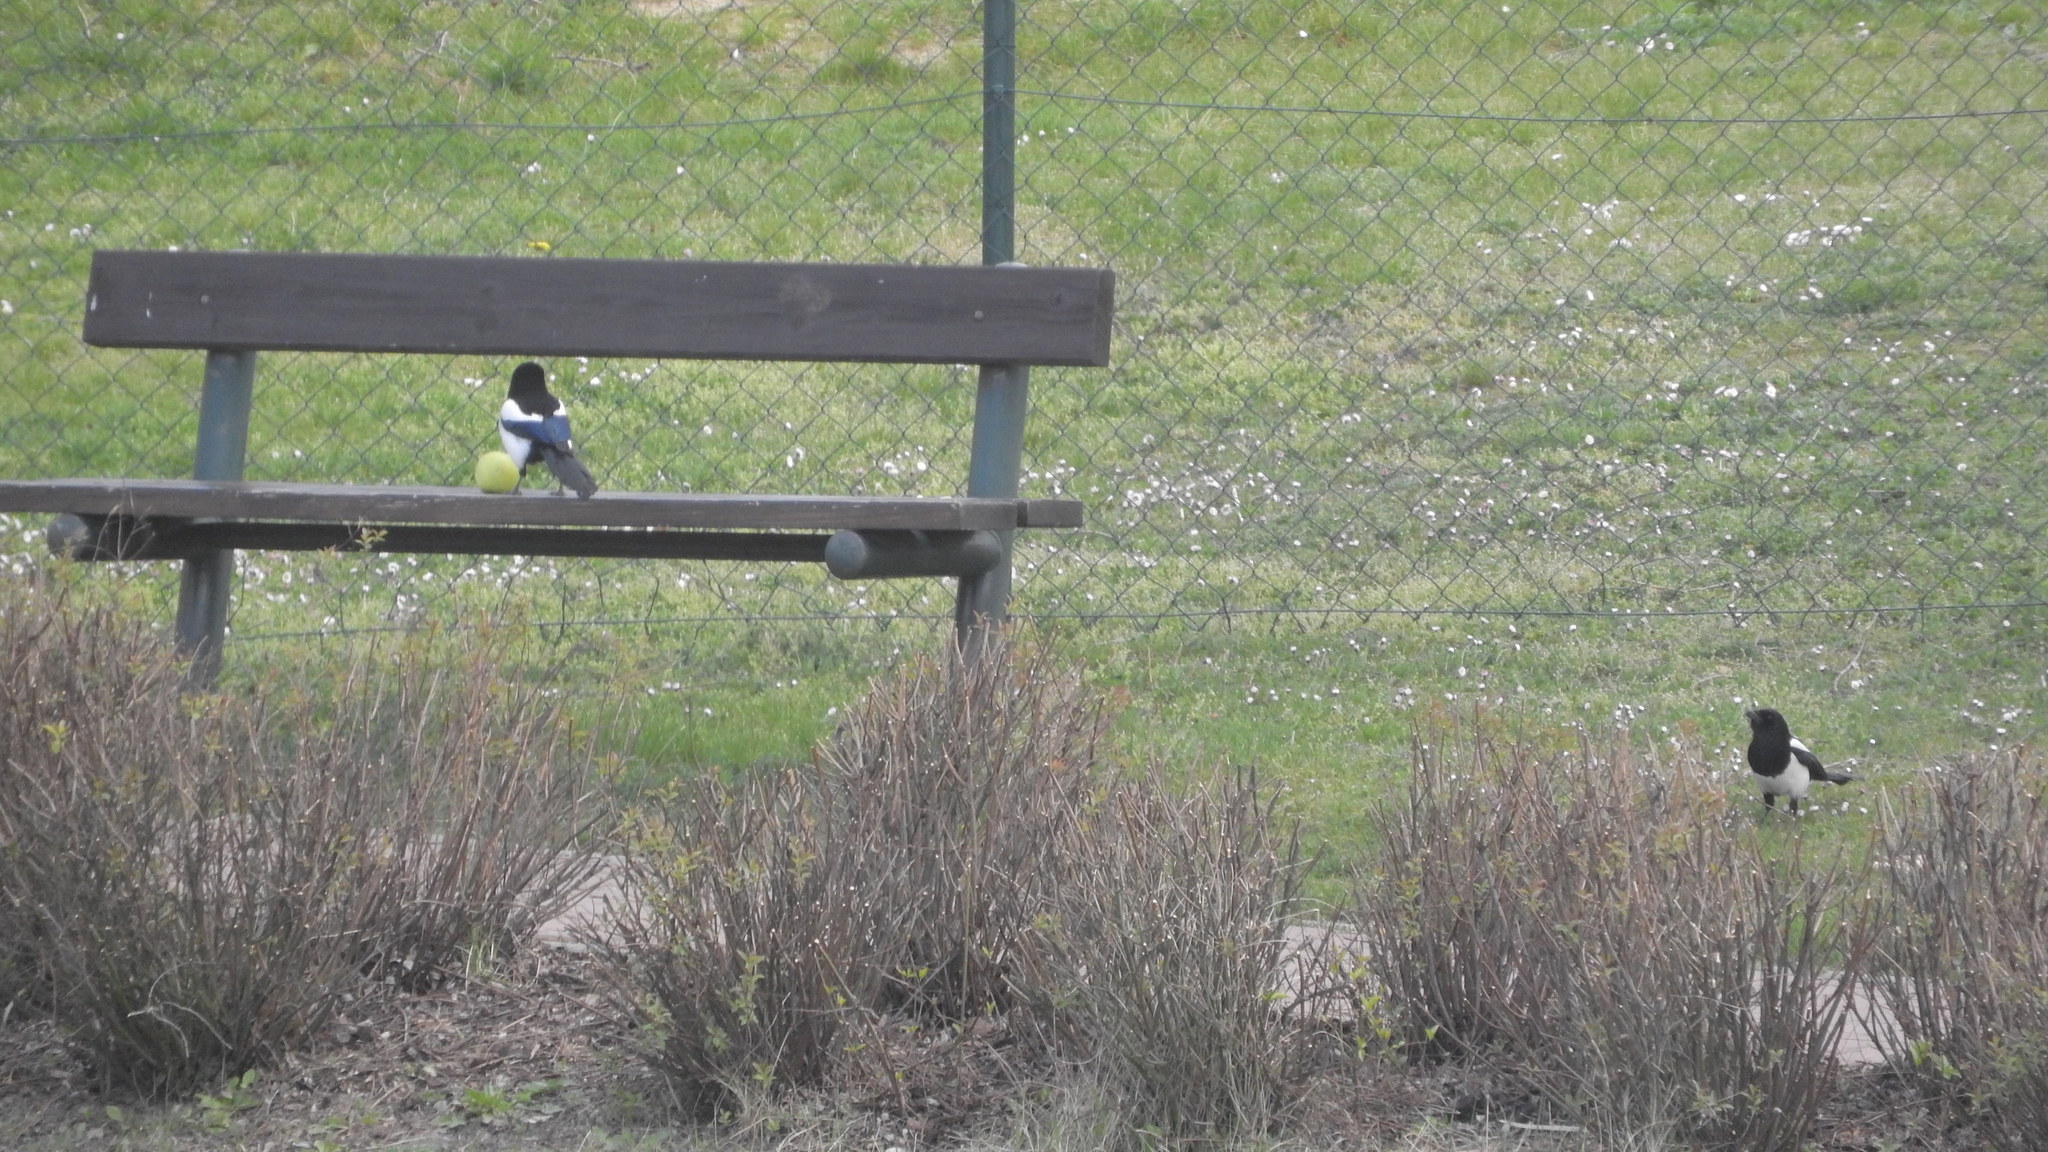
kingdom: Animalia
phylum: Chordata
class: Aves
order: Passeriformes
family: Corvidae
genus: Pica
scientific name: Pica pica
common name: Eurasian magpie
